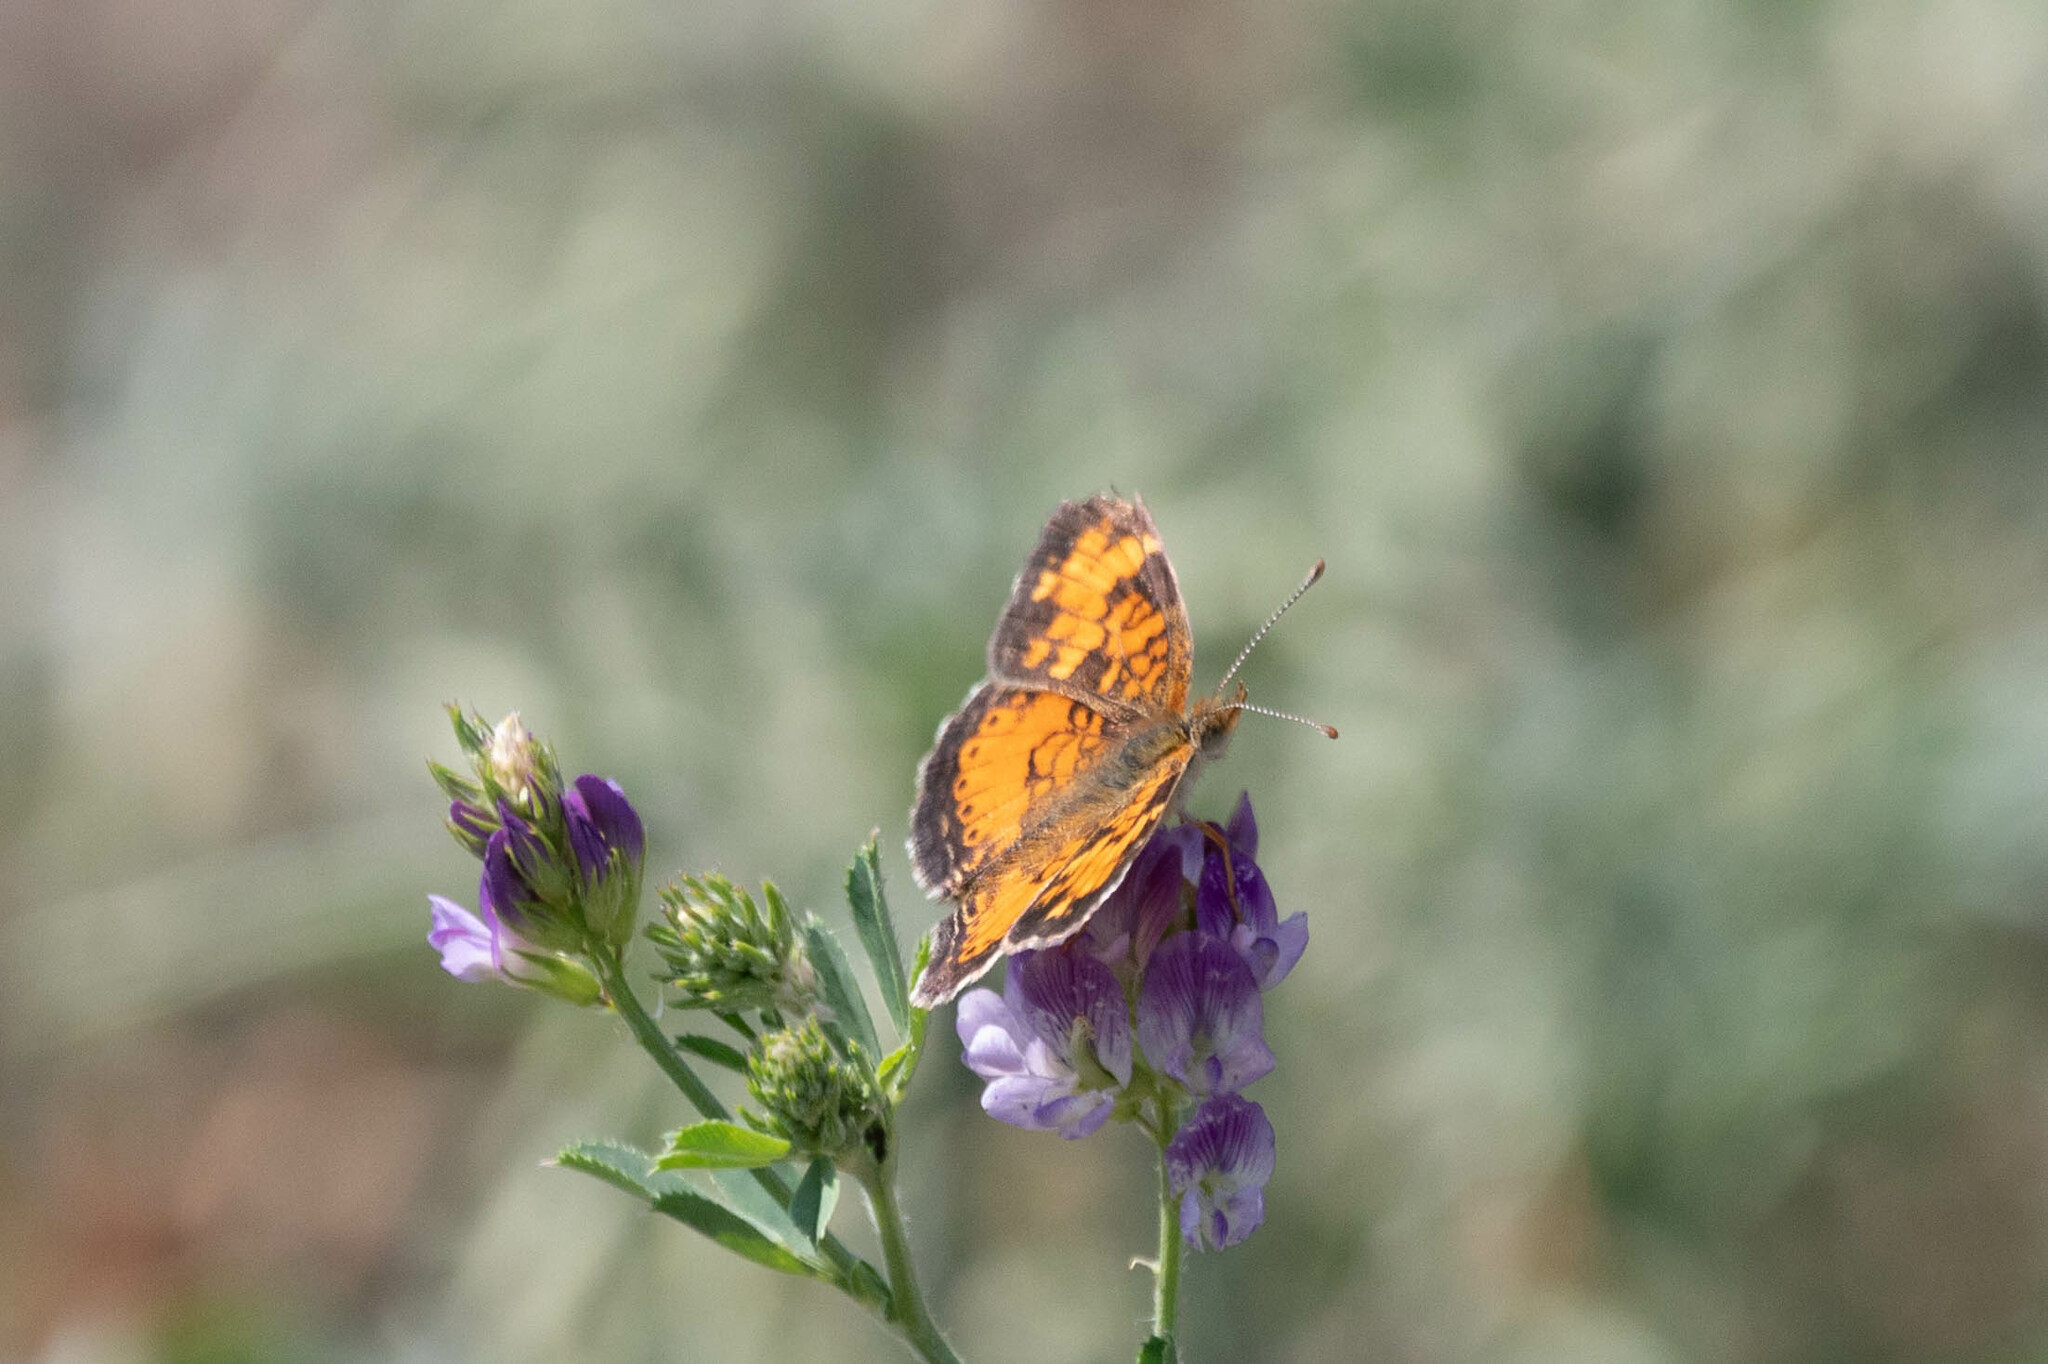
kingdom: Animalia
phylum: Arthropoda
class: Insecta
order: Lepidoptera
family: Nymphalidae
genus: Phyciodes
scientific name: Phyciodes tharos
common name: Pearl crescent
